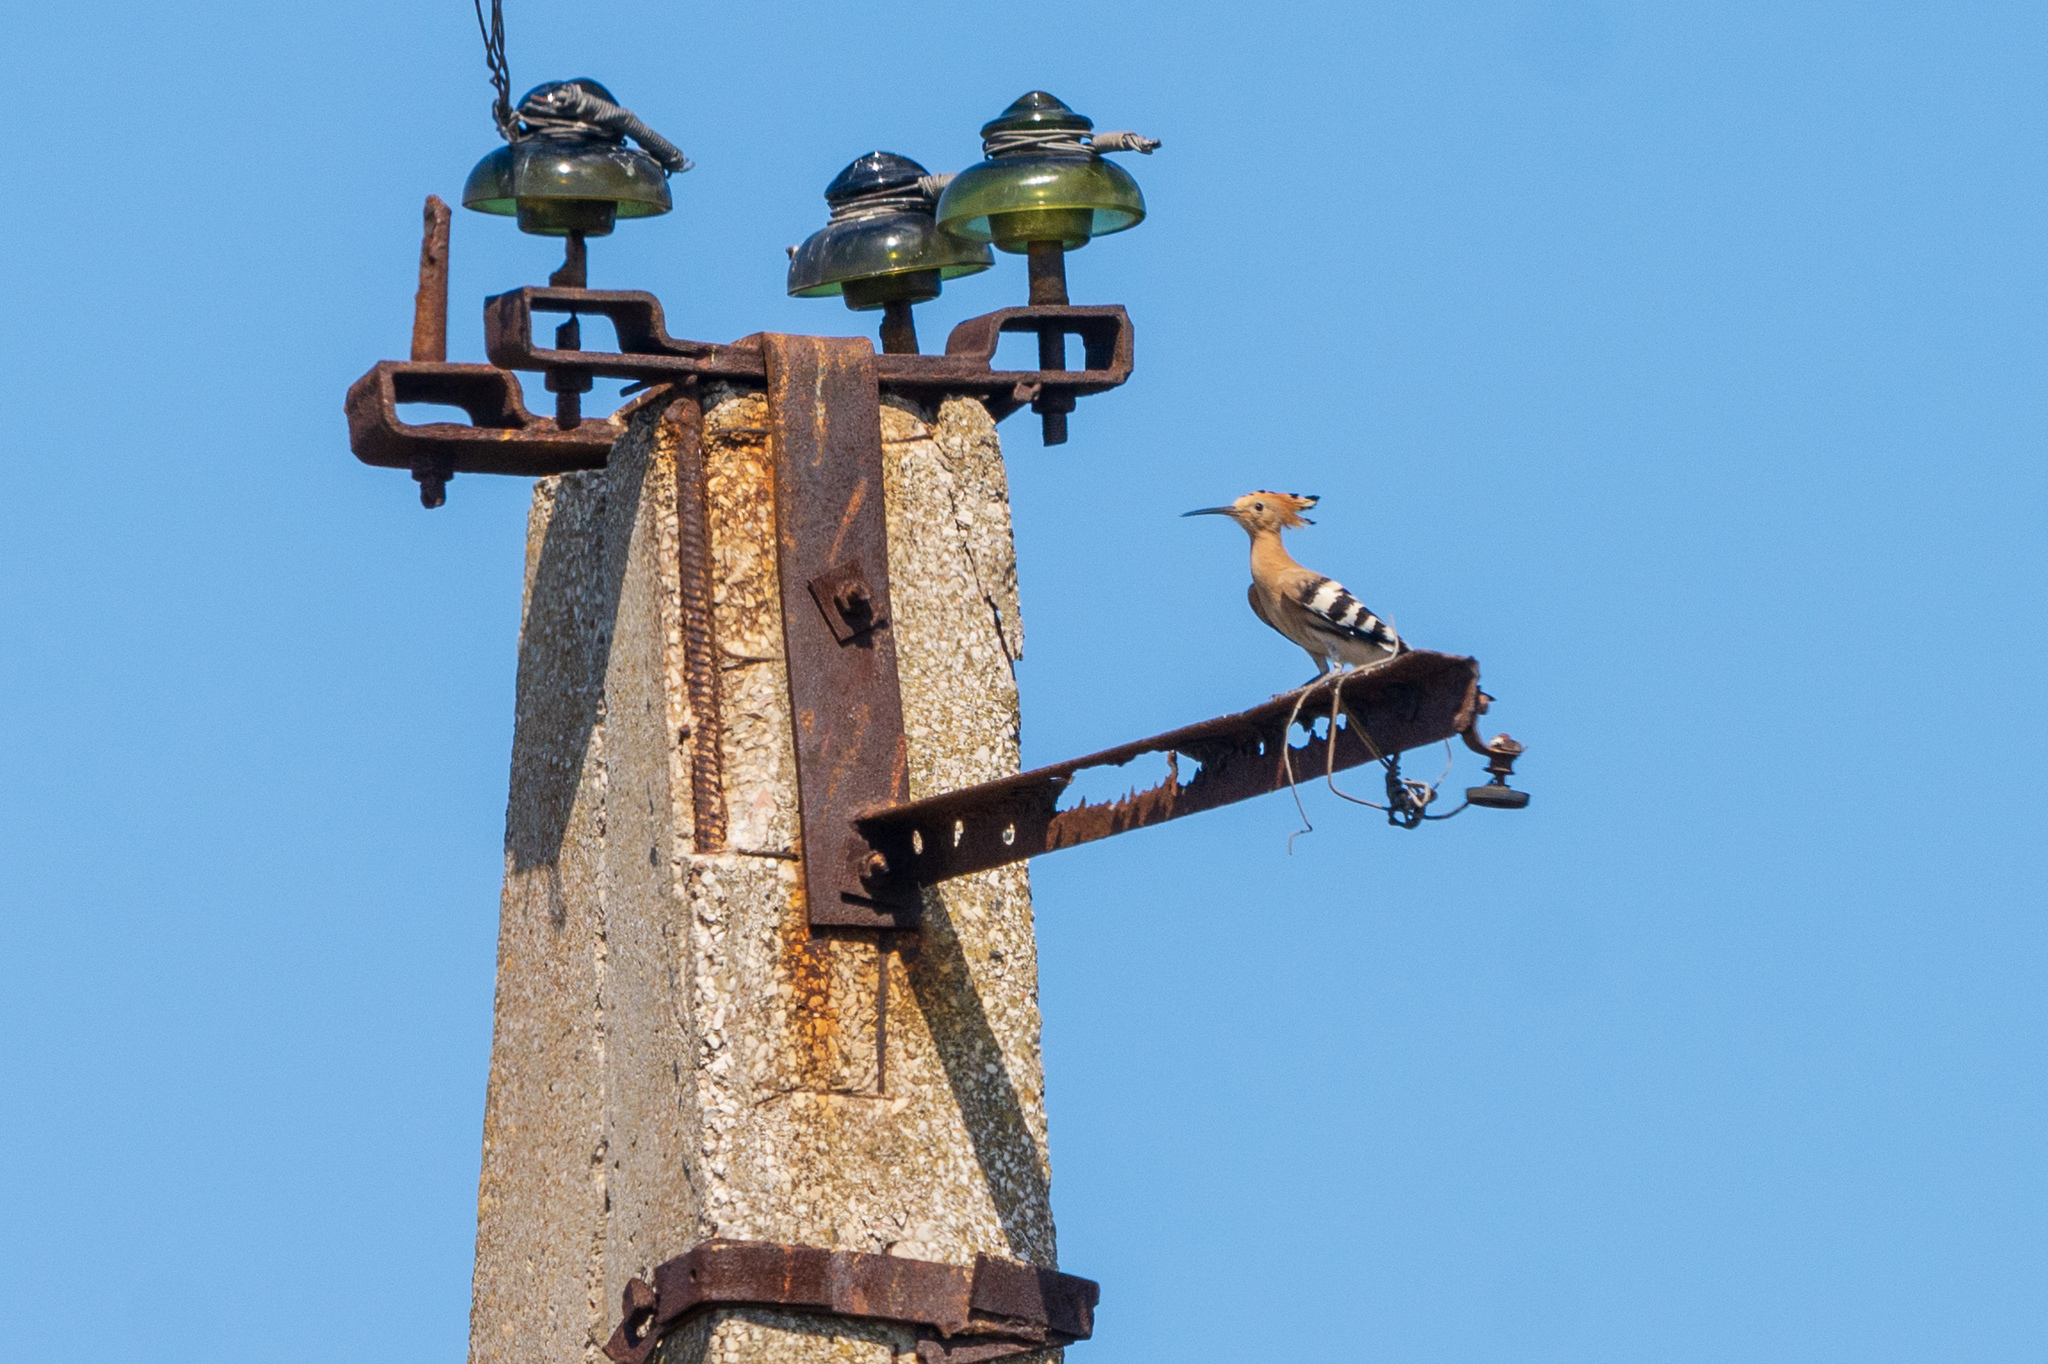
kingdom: Animalia
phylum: Chordata
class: Aves
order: Bucerotiformes
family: Upupidae
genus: Upupa
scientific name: Upupa epops
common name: Eurasian hoopoe
